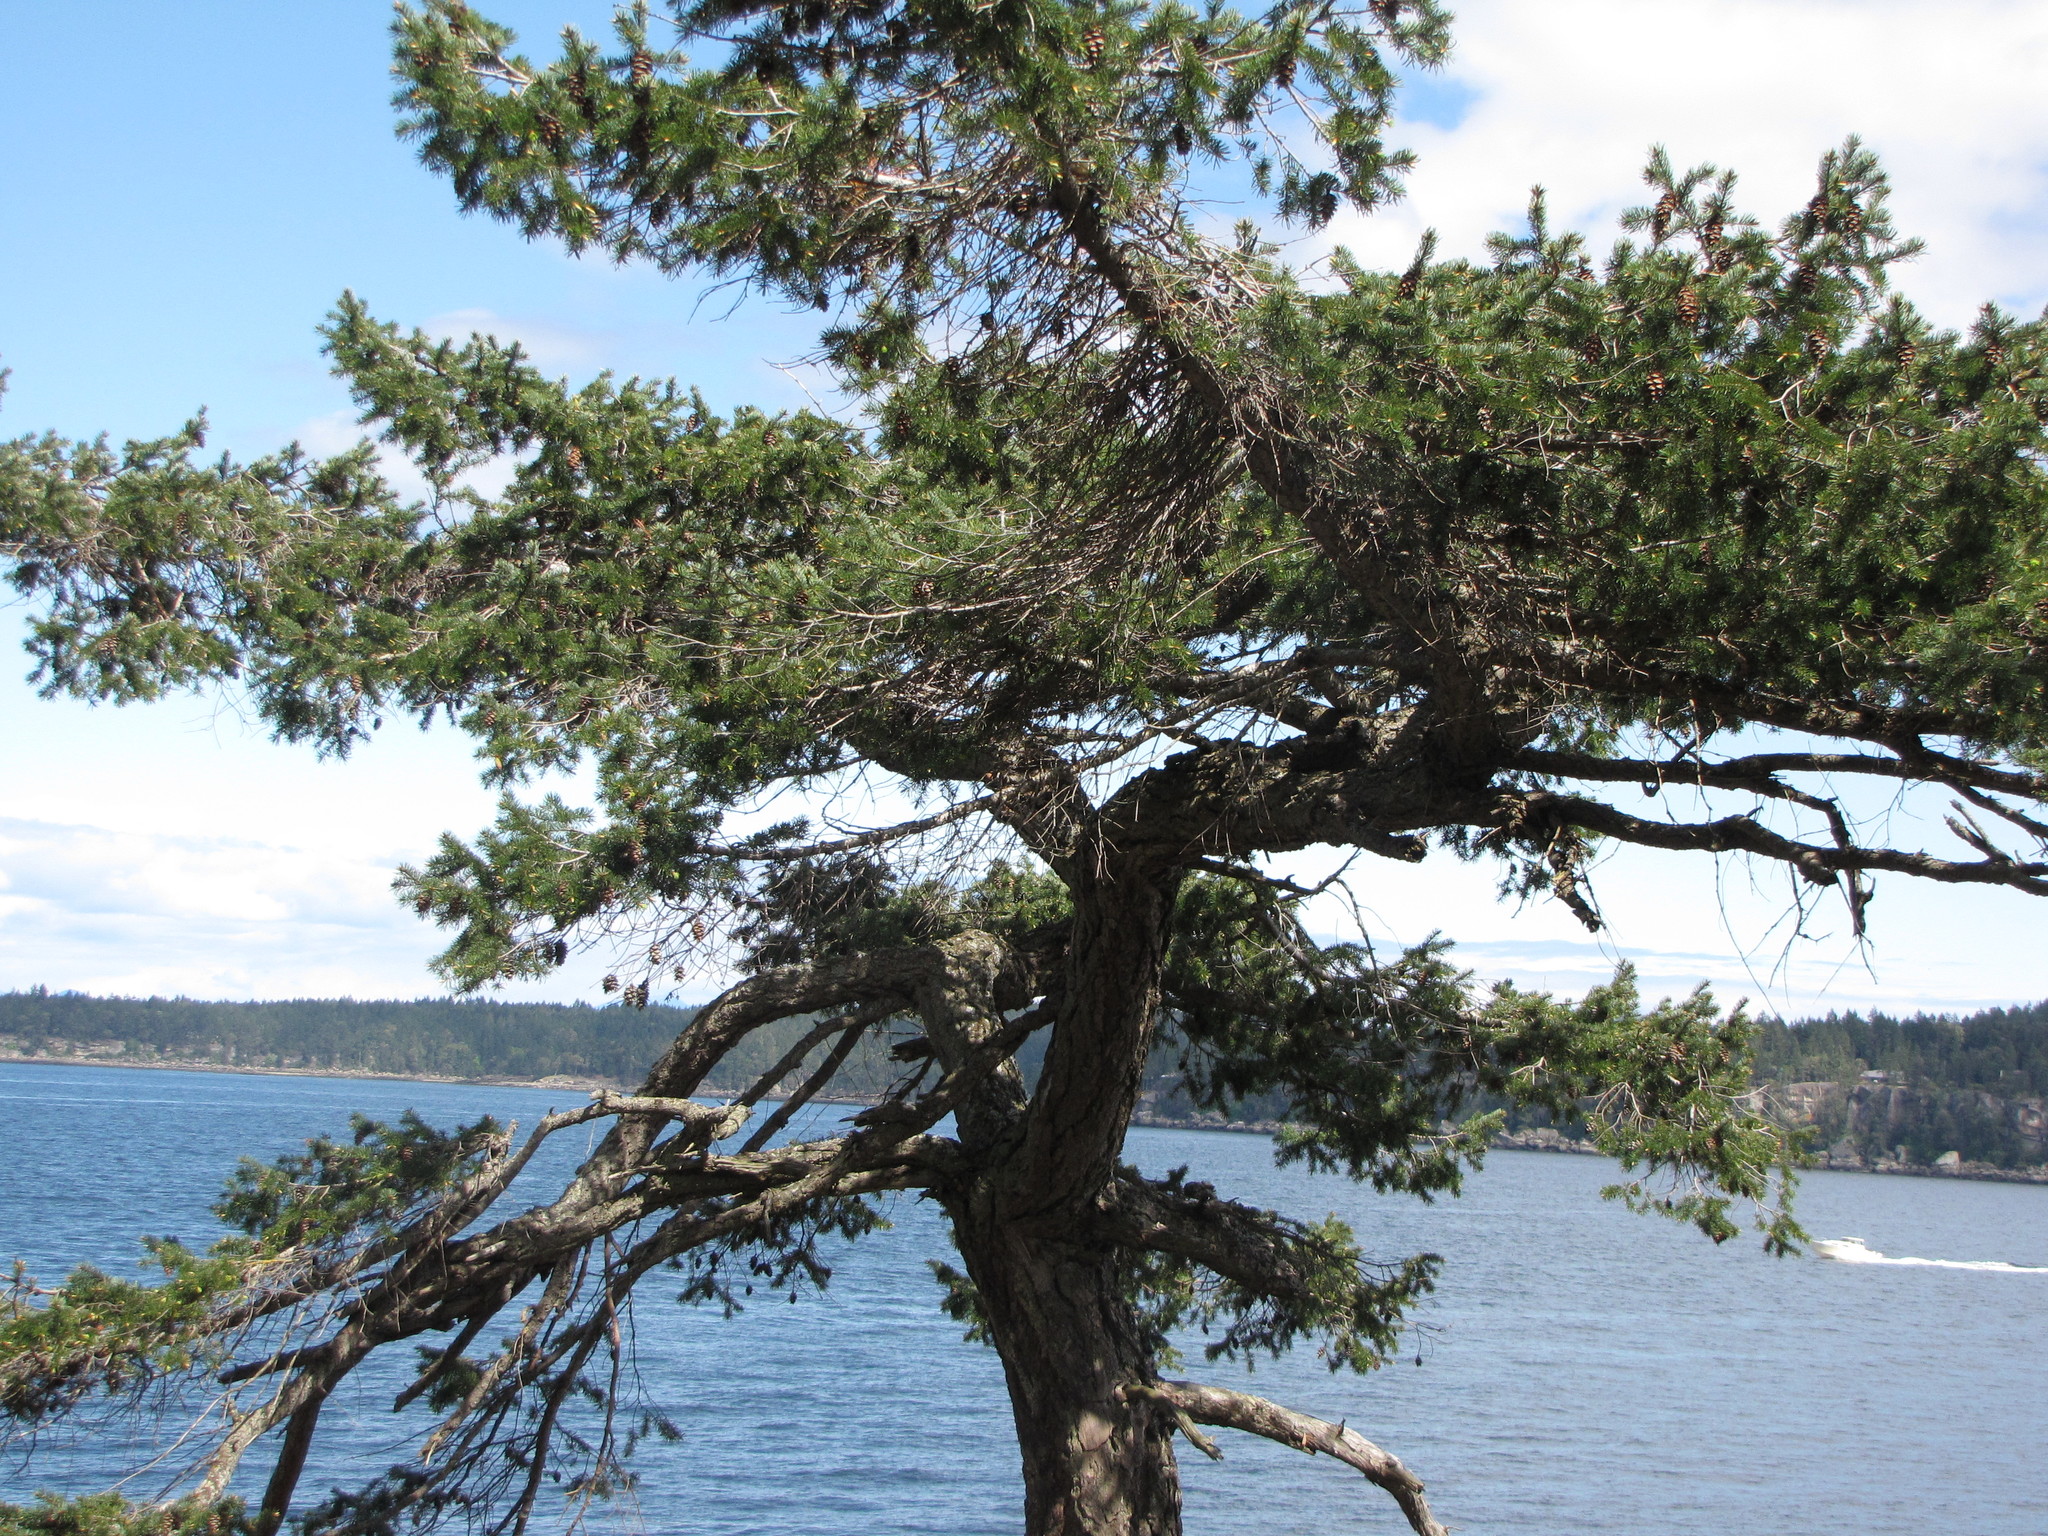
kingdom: Plantae
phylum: Tracheophyta
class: Pinopsida
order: Pinales
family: Pinaceae
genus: Pseudotsuga
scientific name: Pseudotsuga menziesii
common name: Douglas fir
